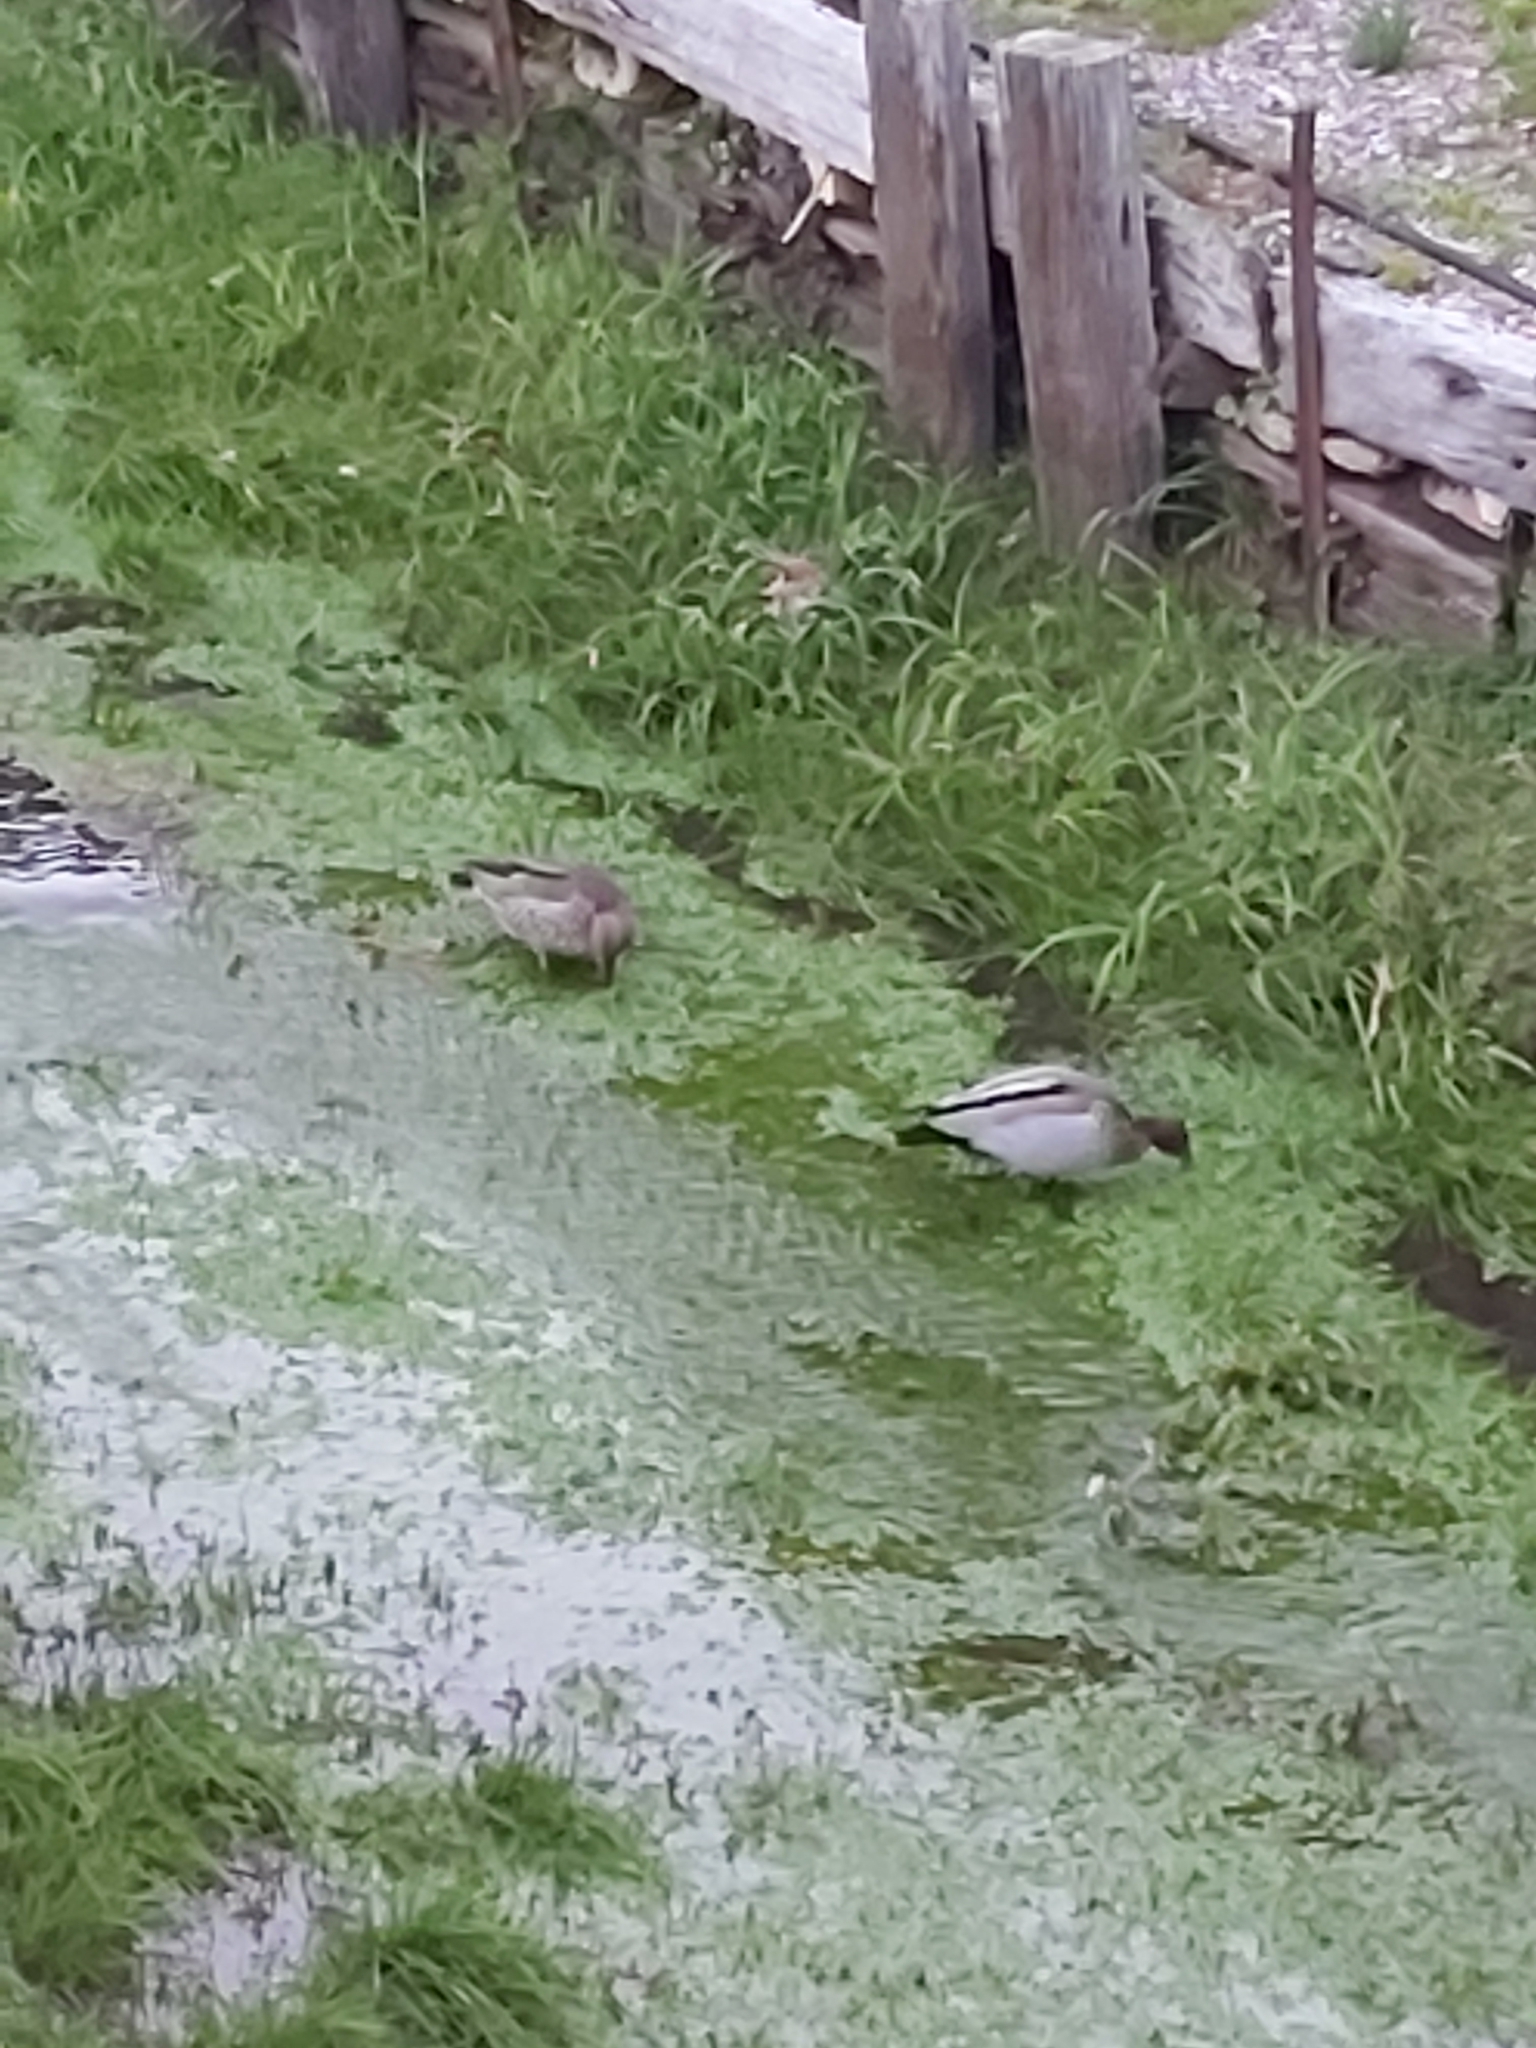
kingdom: Animalia
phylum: Chordata
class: Aves
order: Anseriformes
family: Anatidae
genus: Chenonetta
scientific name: Chenonetta jubata
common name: Maned duck
